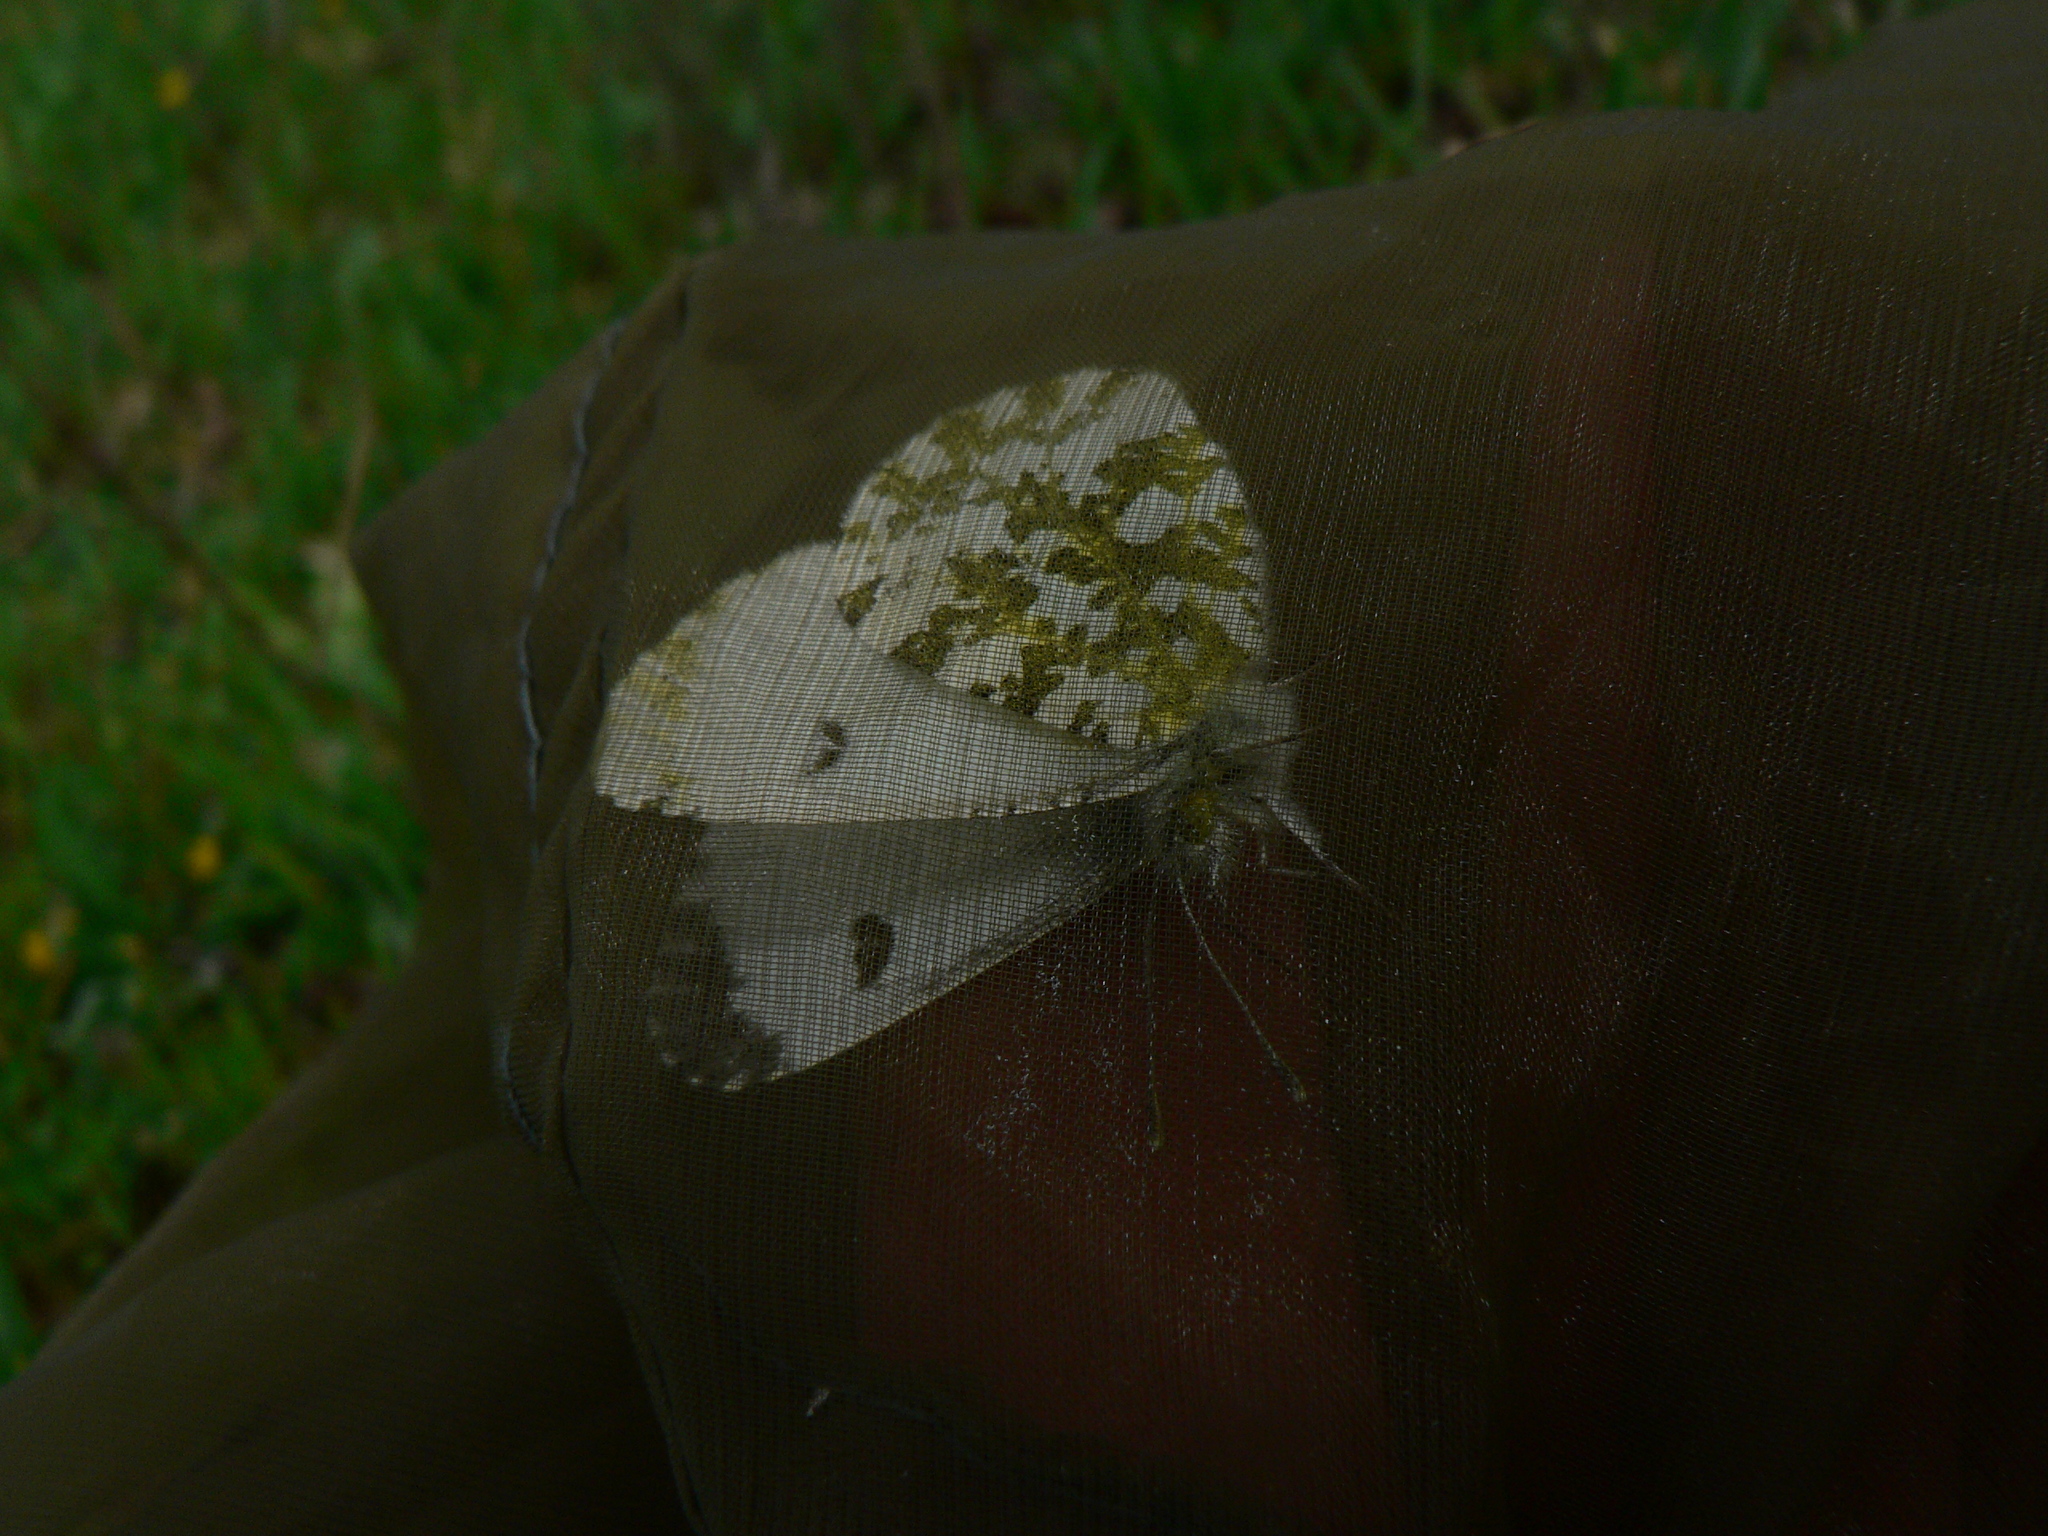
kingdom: Animalia
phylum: Arthropoda
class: Insecta
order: Lepidoptera
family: Pieridae
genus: Anthocharis
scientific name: Anthocharis cardamines
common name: Orange-tip
